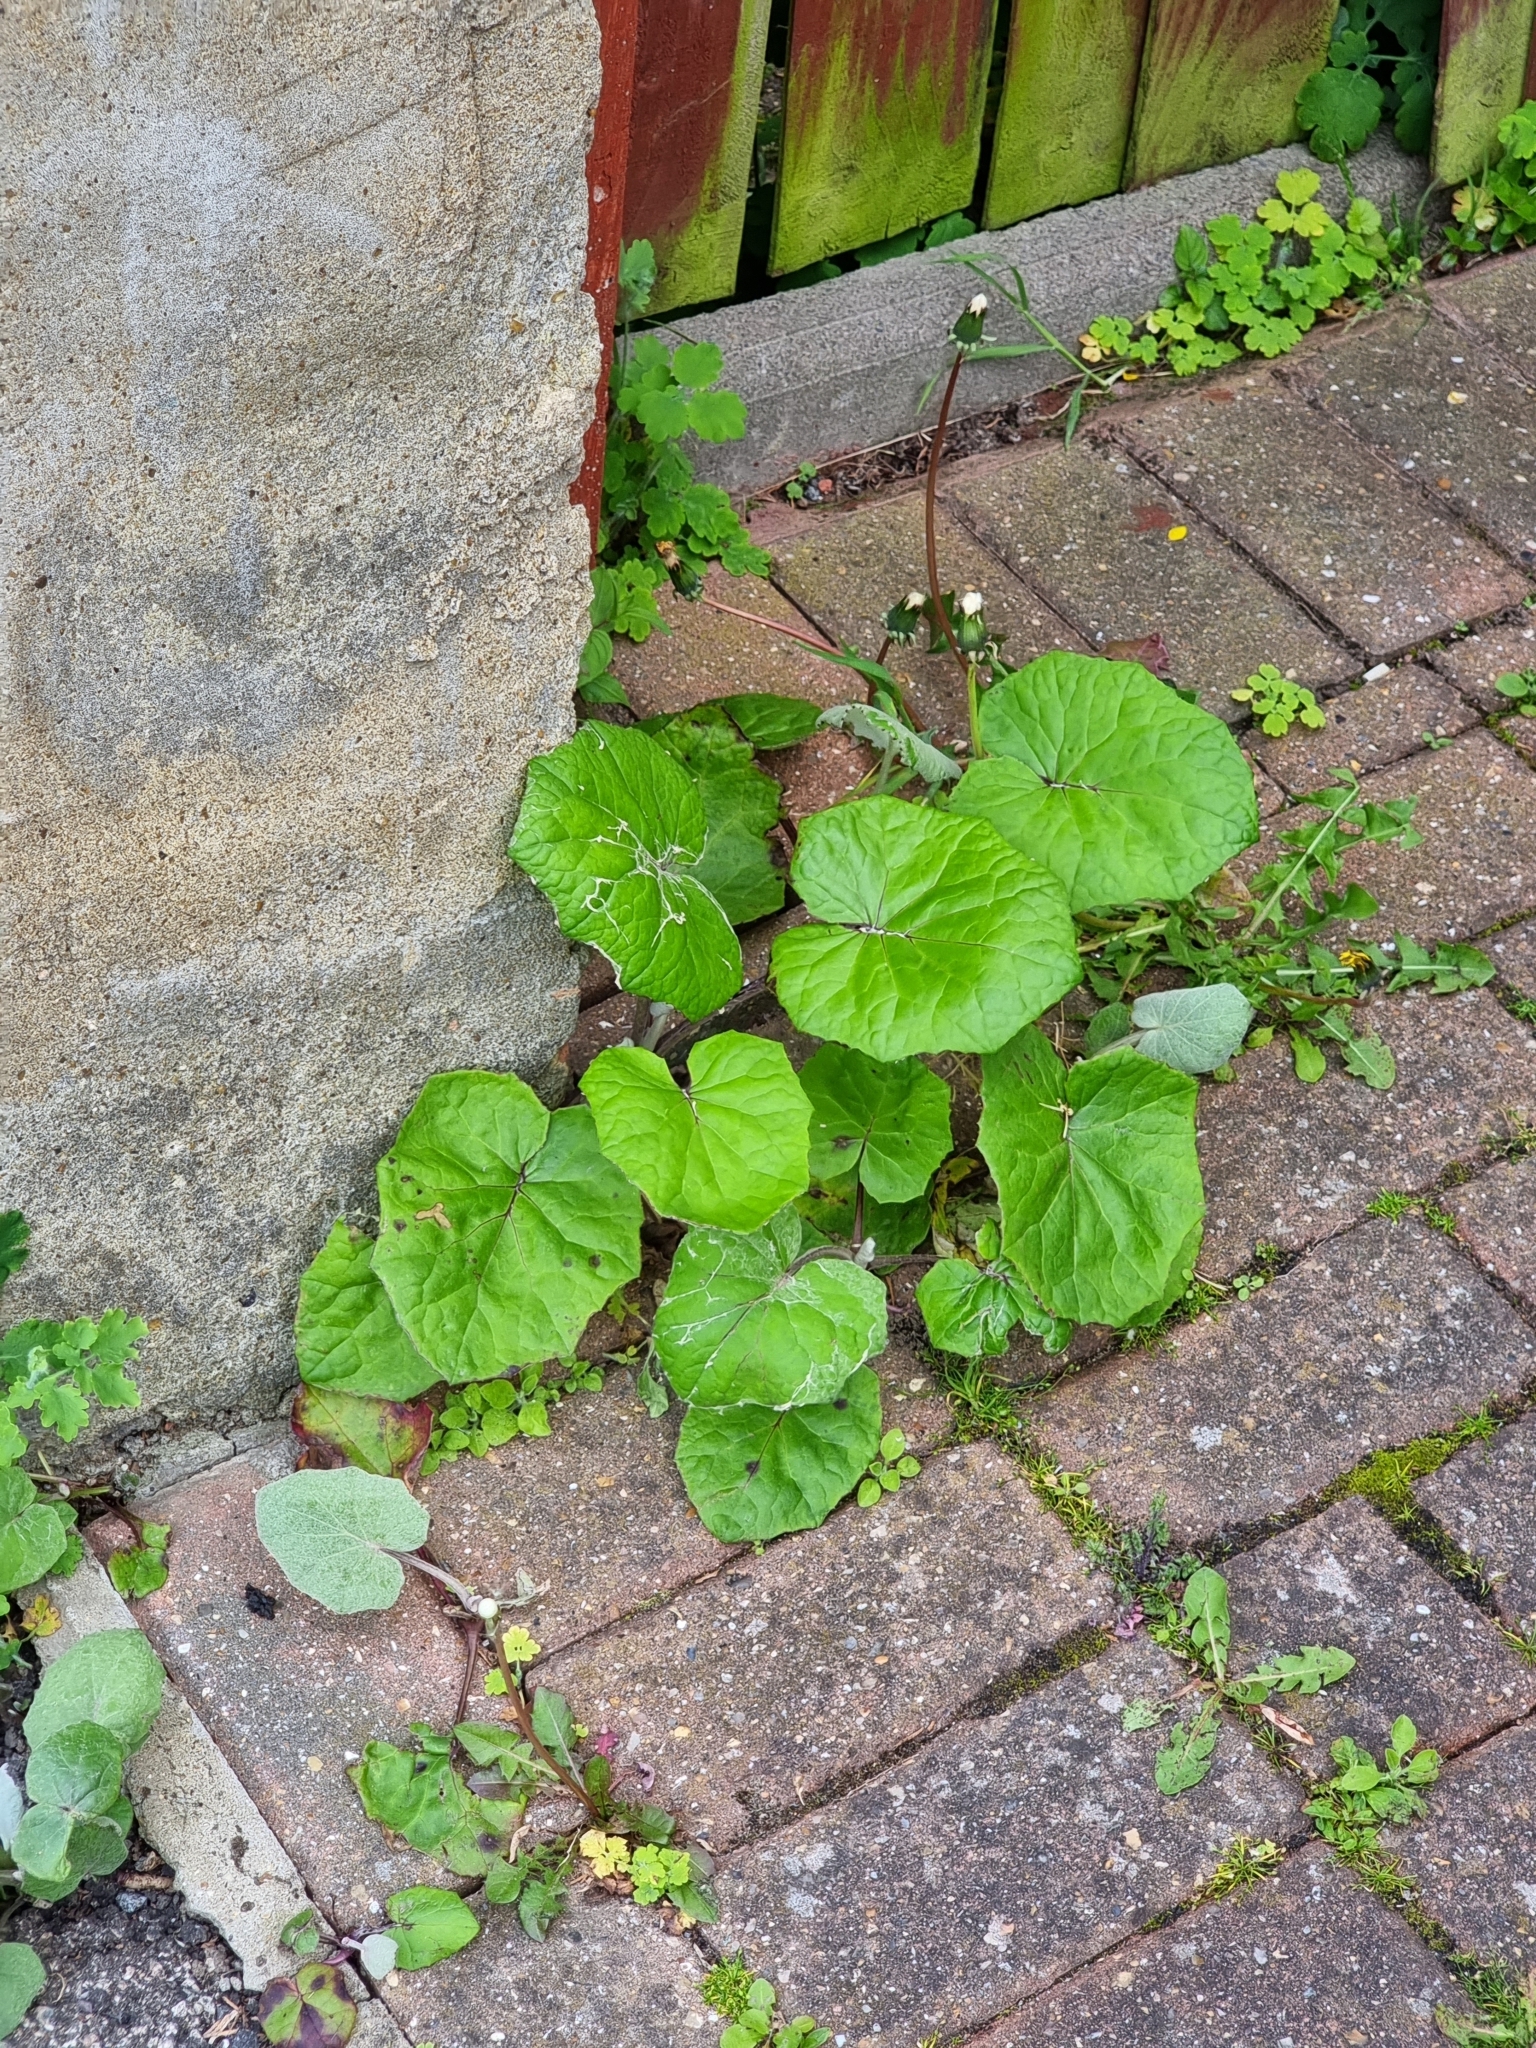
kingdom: Plantae
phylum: Tracheophyta
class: Magnoliopsida
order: Asterales
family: Asteraceae
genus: Tussilago
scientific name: Tussilago farfara
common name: Coltsfoot
